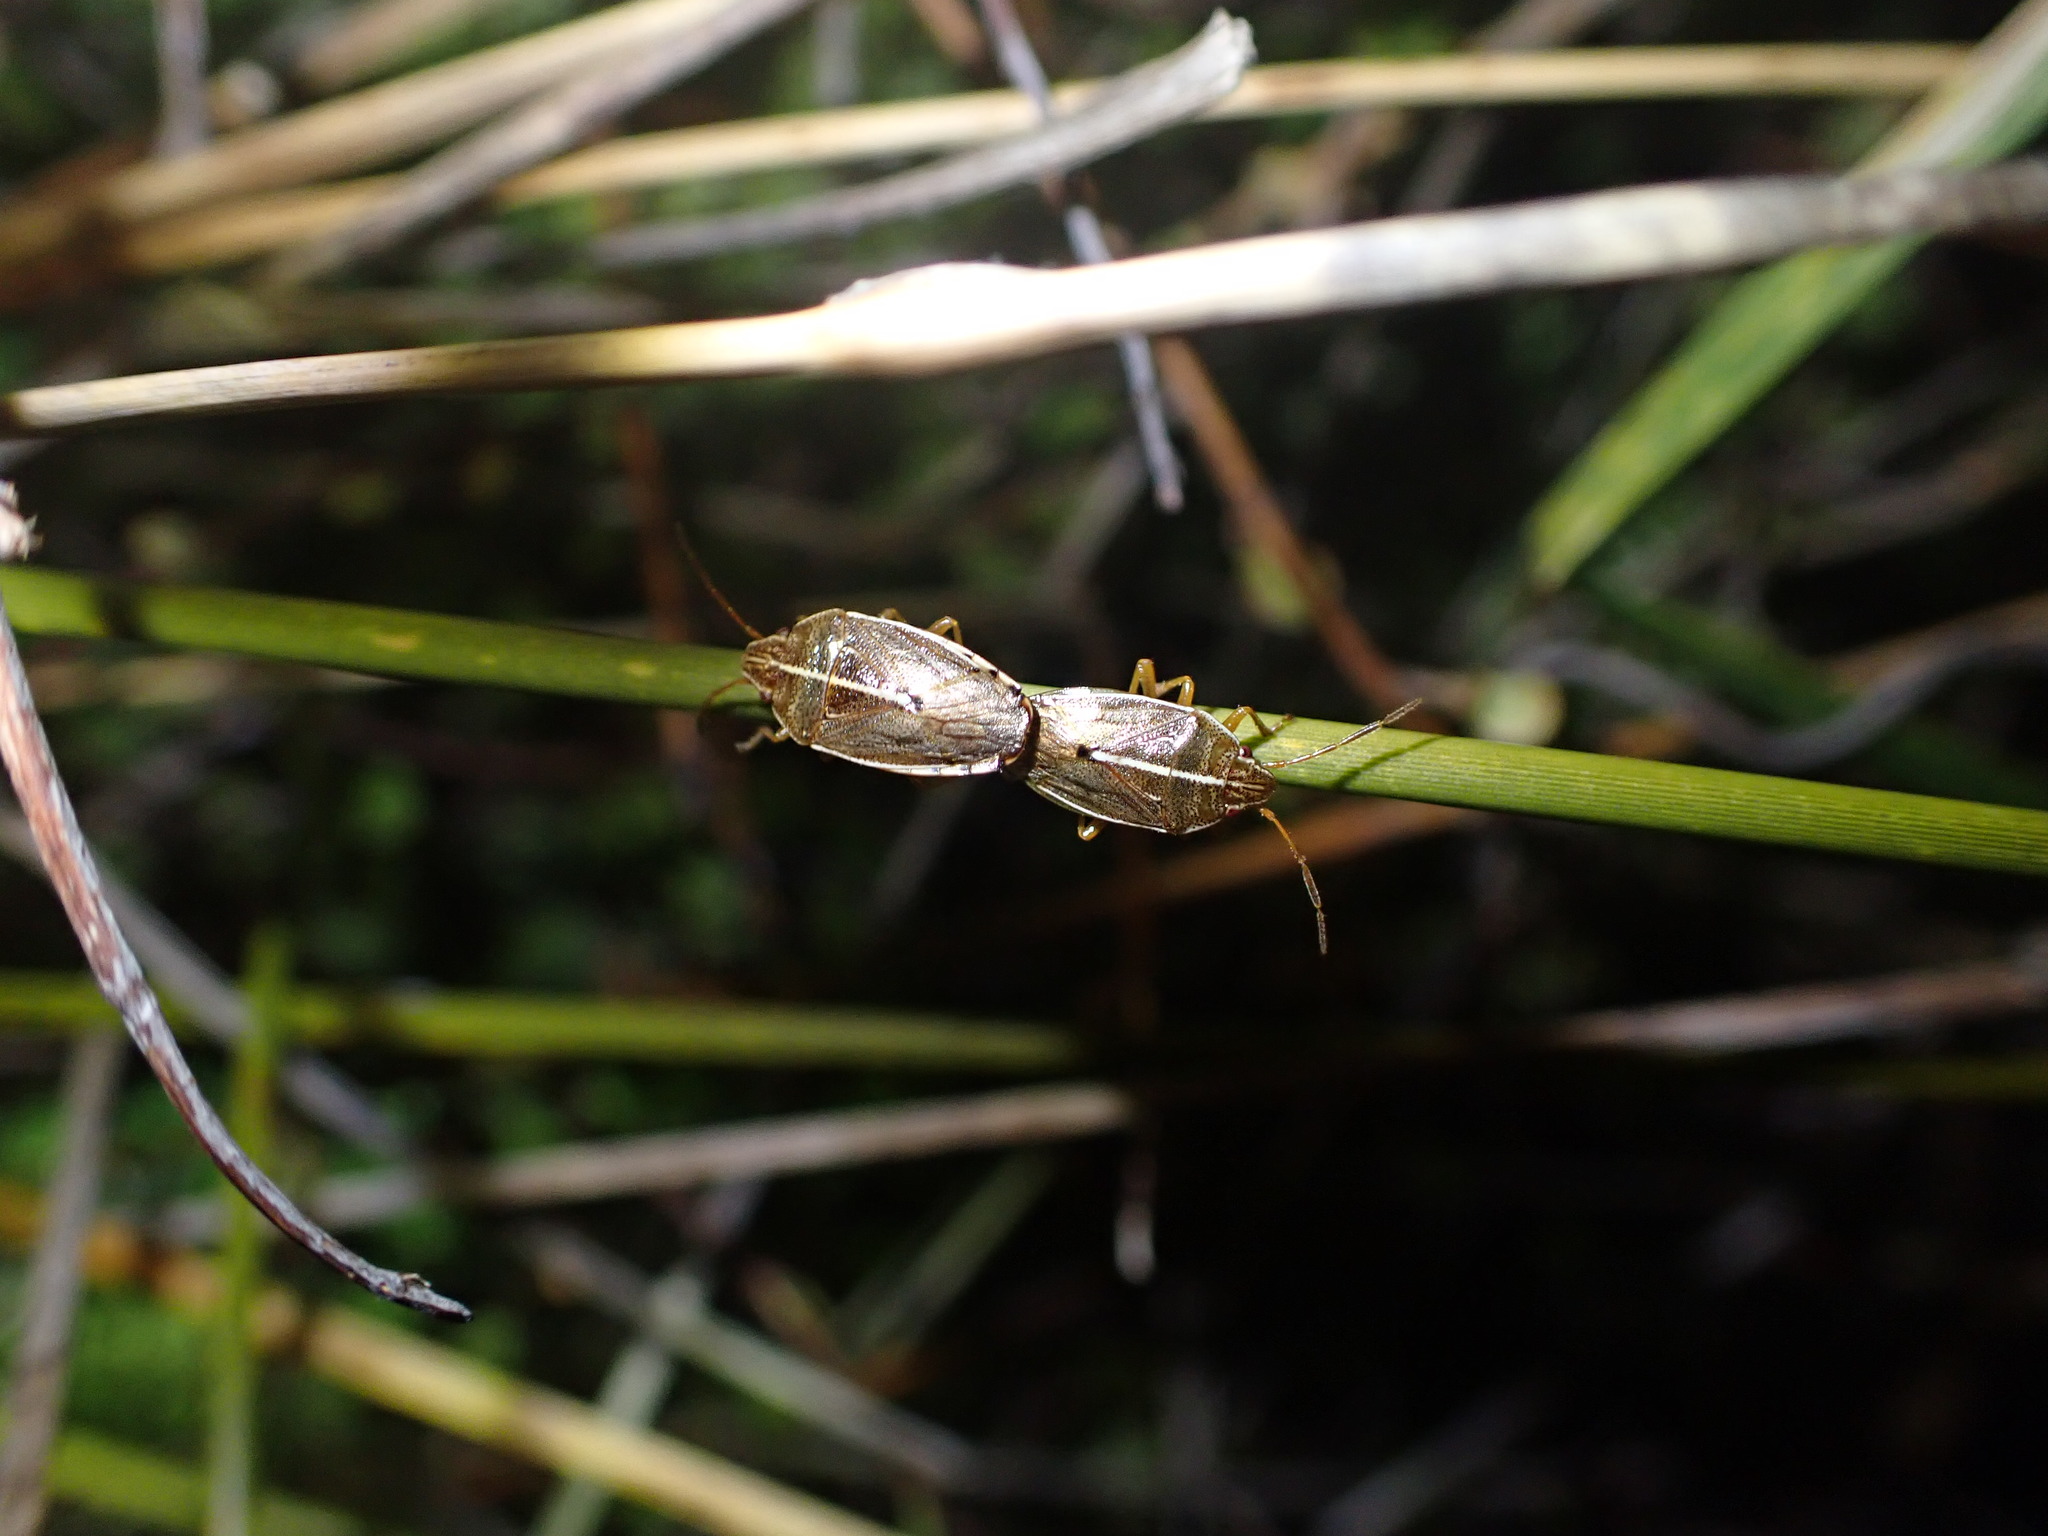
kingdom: Animalia
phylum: Arthropoda
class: Insecta
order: Hemiptera
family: Acanthosomatidae
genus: Rhopalimorpha
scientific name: Rhopalimorpha lineolaris
